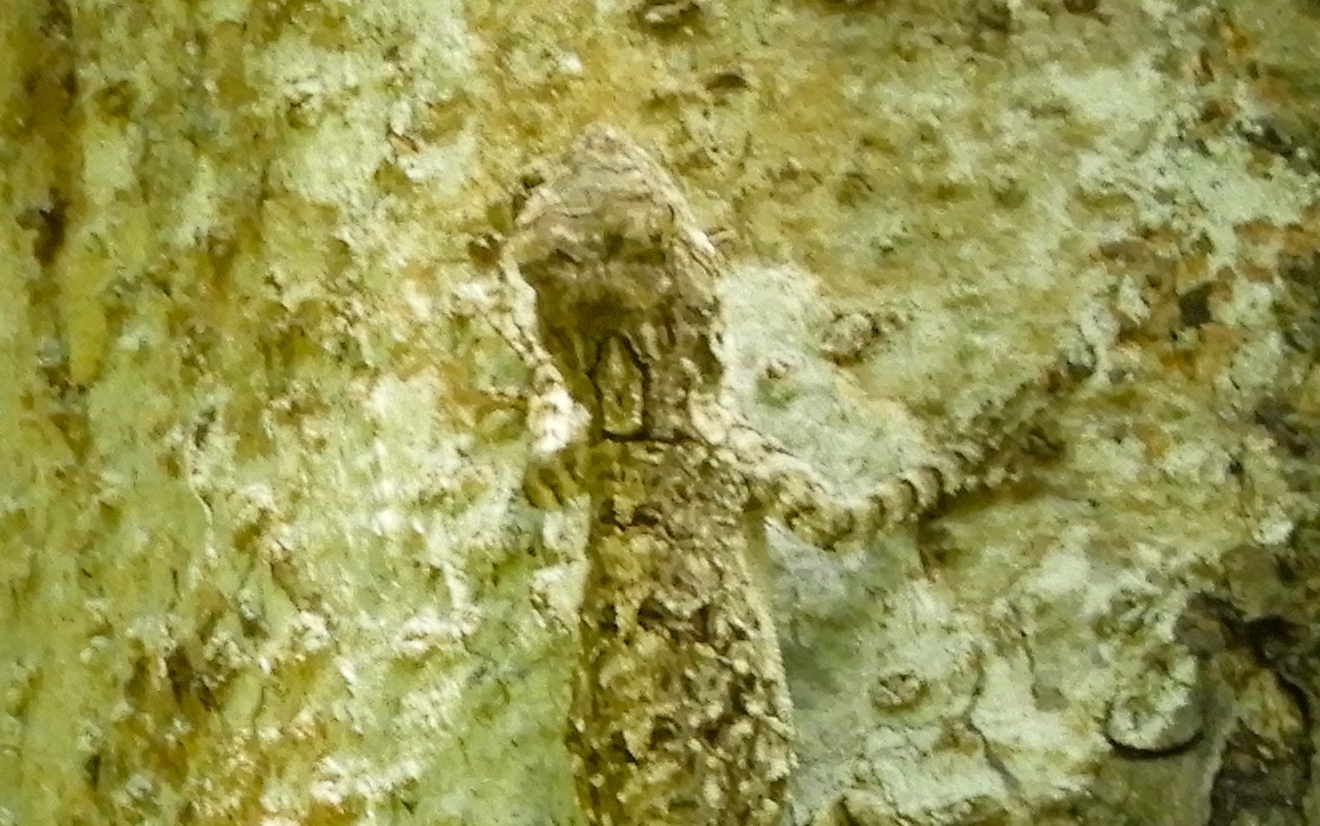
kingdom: Animalia
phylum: Chordata
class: Squamata
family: Phrynosomatidae
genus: Urosaurus
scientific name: Urosaurus bicarinatus
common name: Tropical tree lizard
